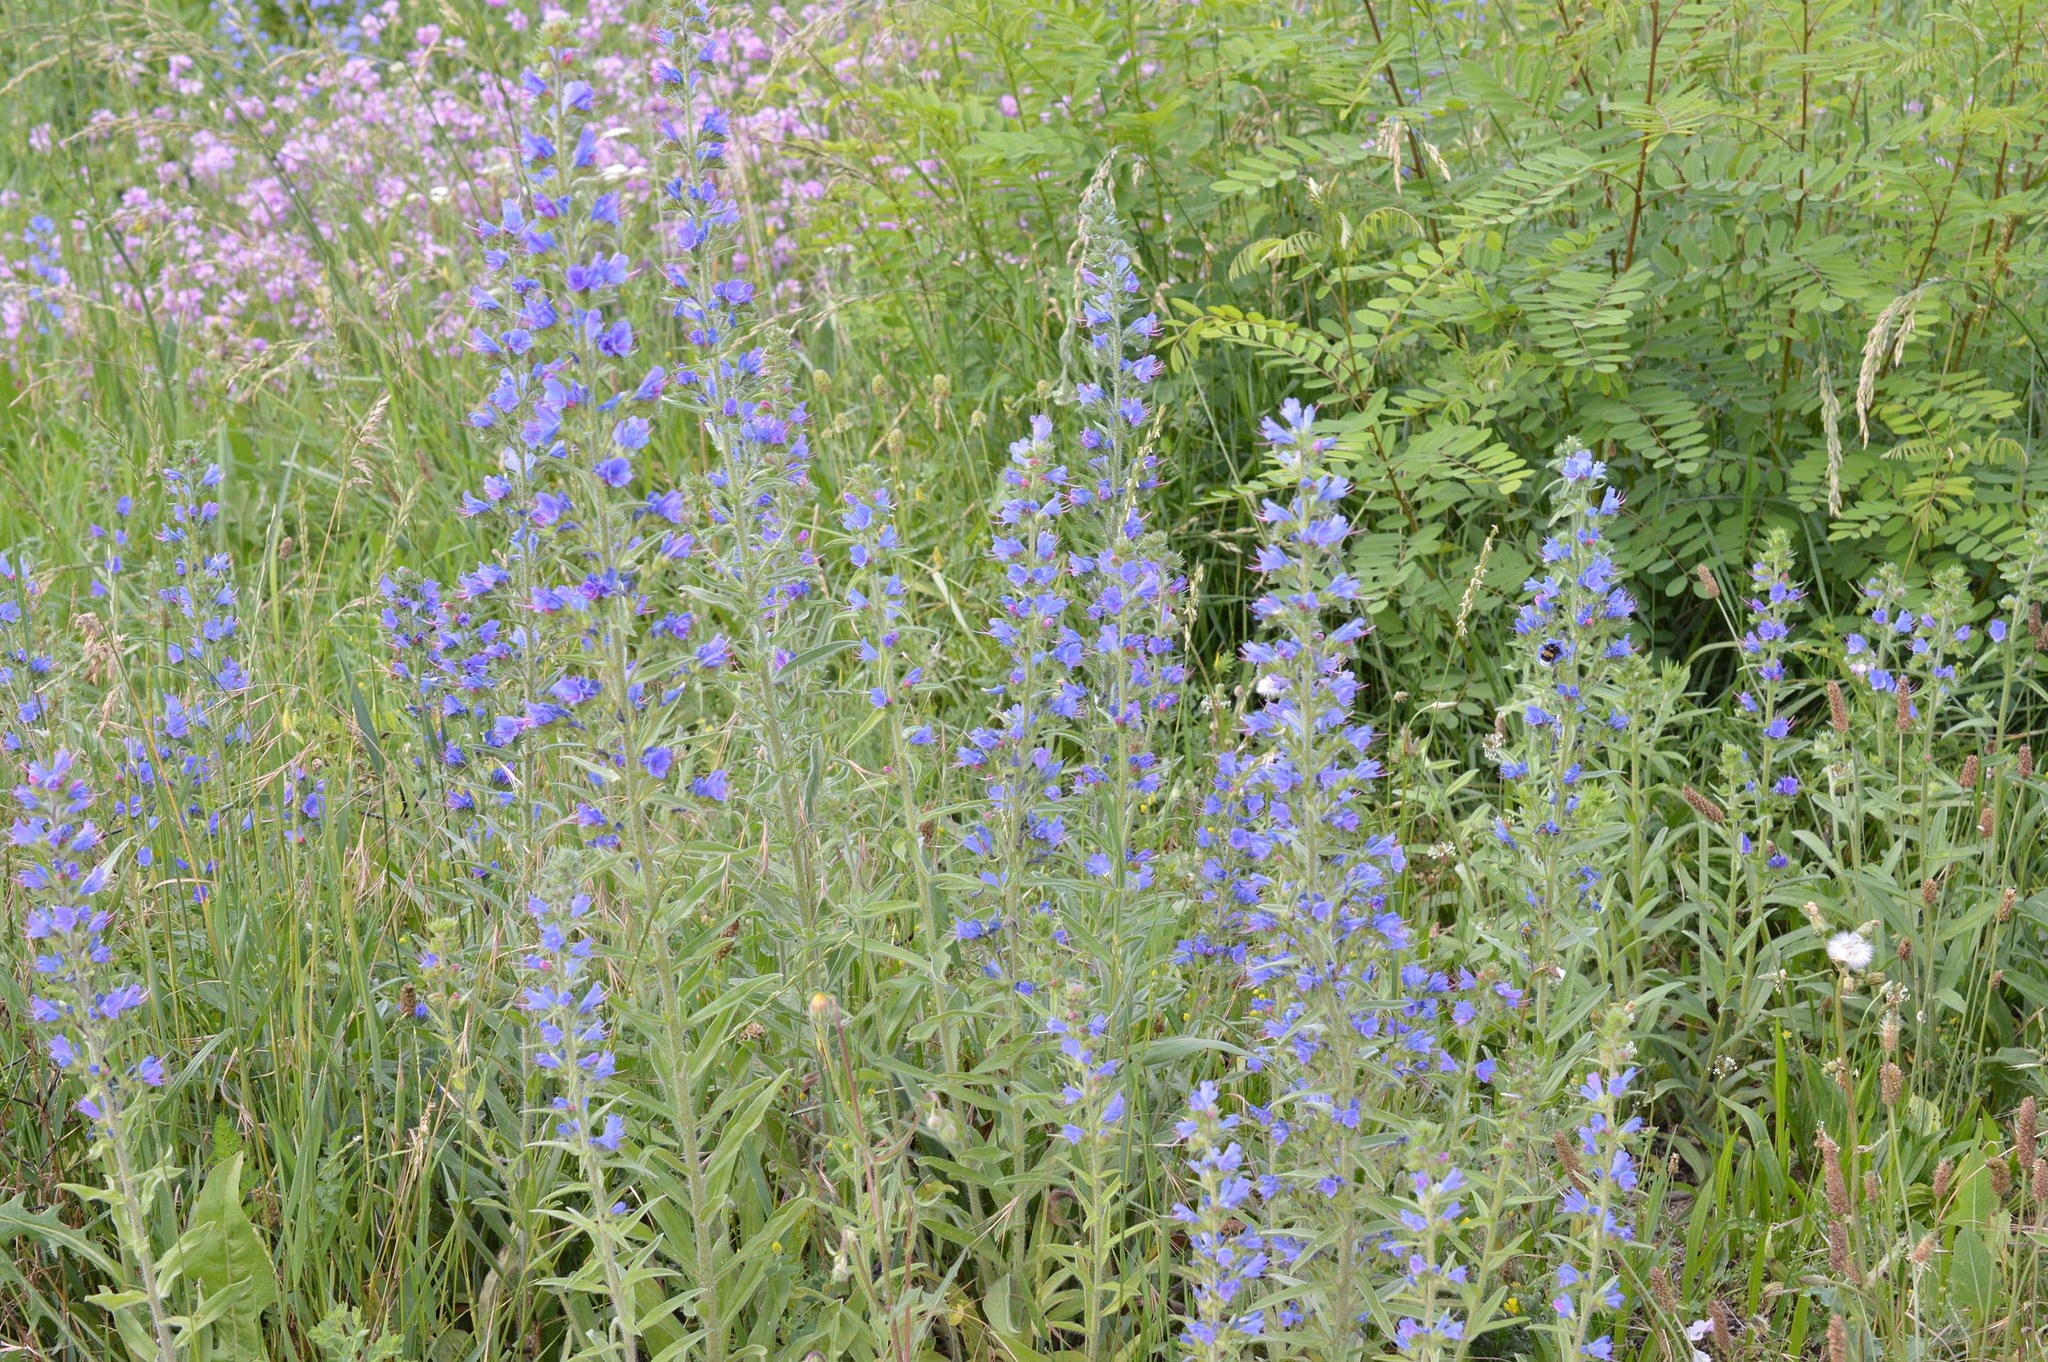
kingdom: Plantae
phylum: Tracheophyta
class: Magnoliopsida
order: Boraginales
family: Boraginaceae
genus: Echium
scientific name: Echium vulgare
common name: Common viper's bugloss
